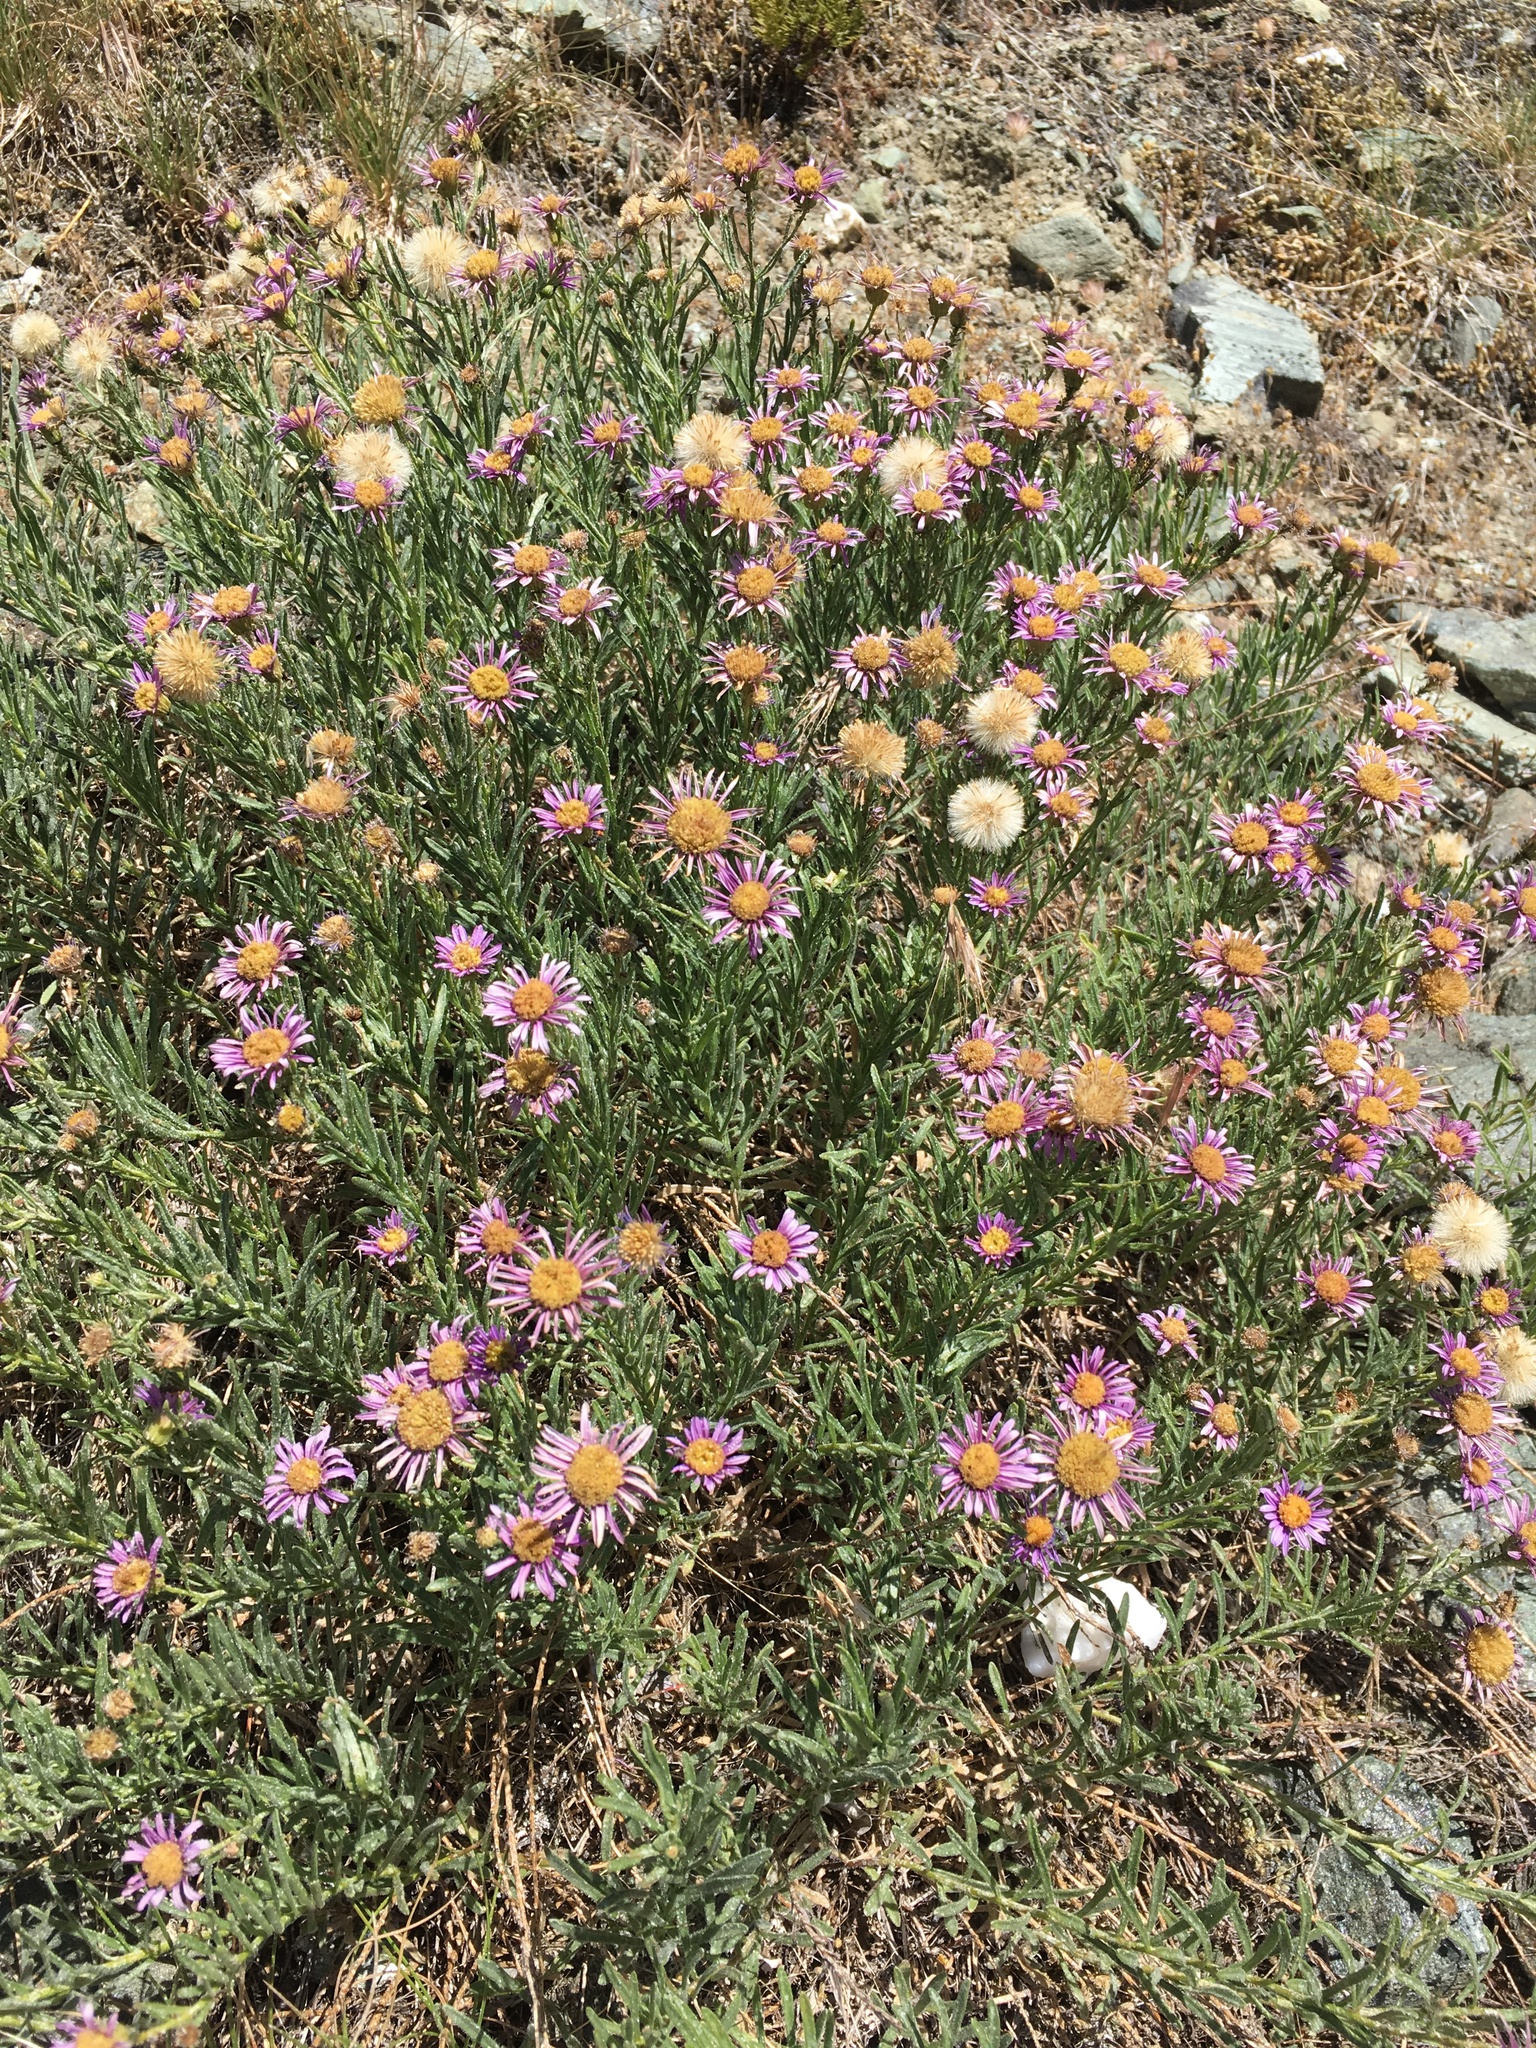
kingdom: Plantae
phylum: Tracheophyta
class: Magnoliopsida
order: Asterales
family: Asteraceae
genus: Erigeron
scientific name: Erigeron klamathensis
